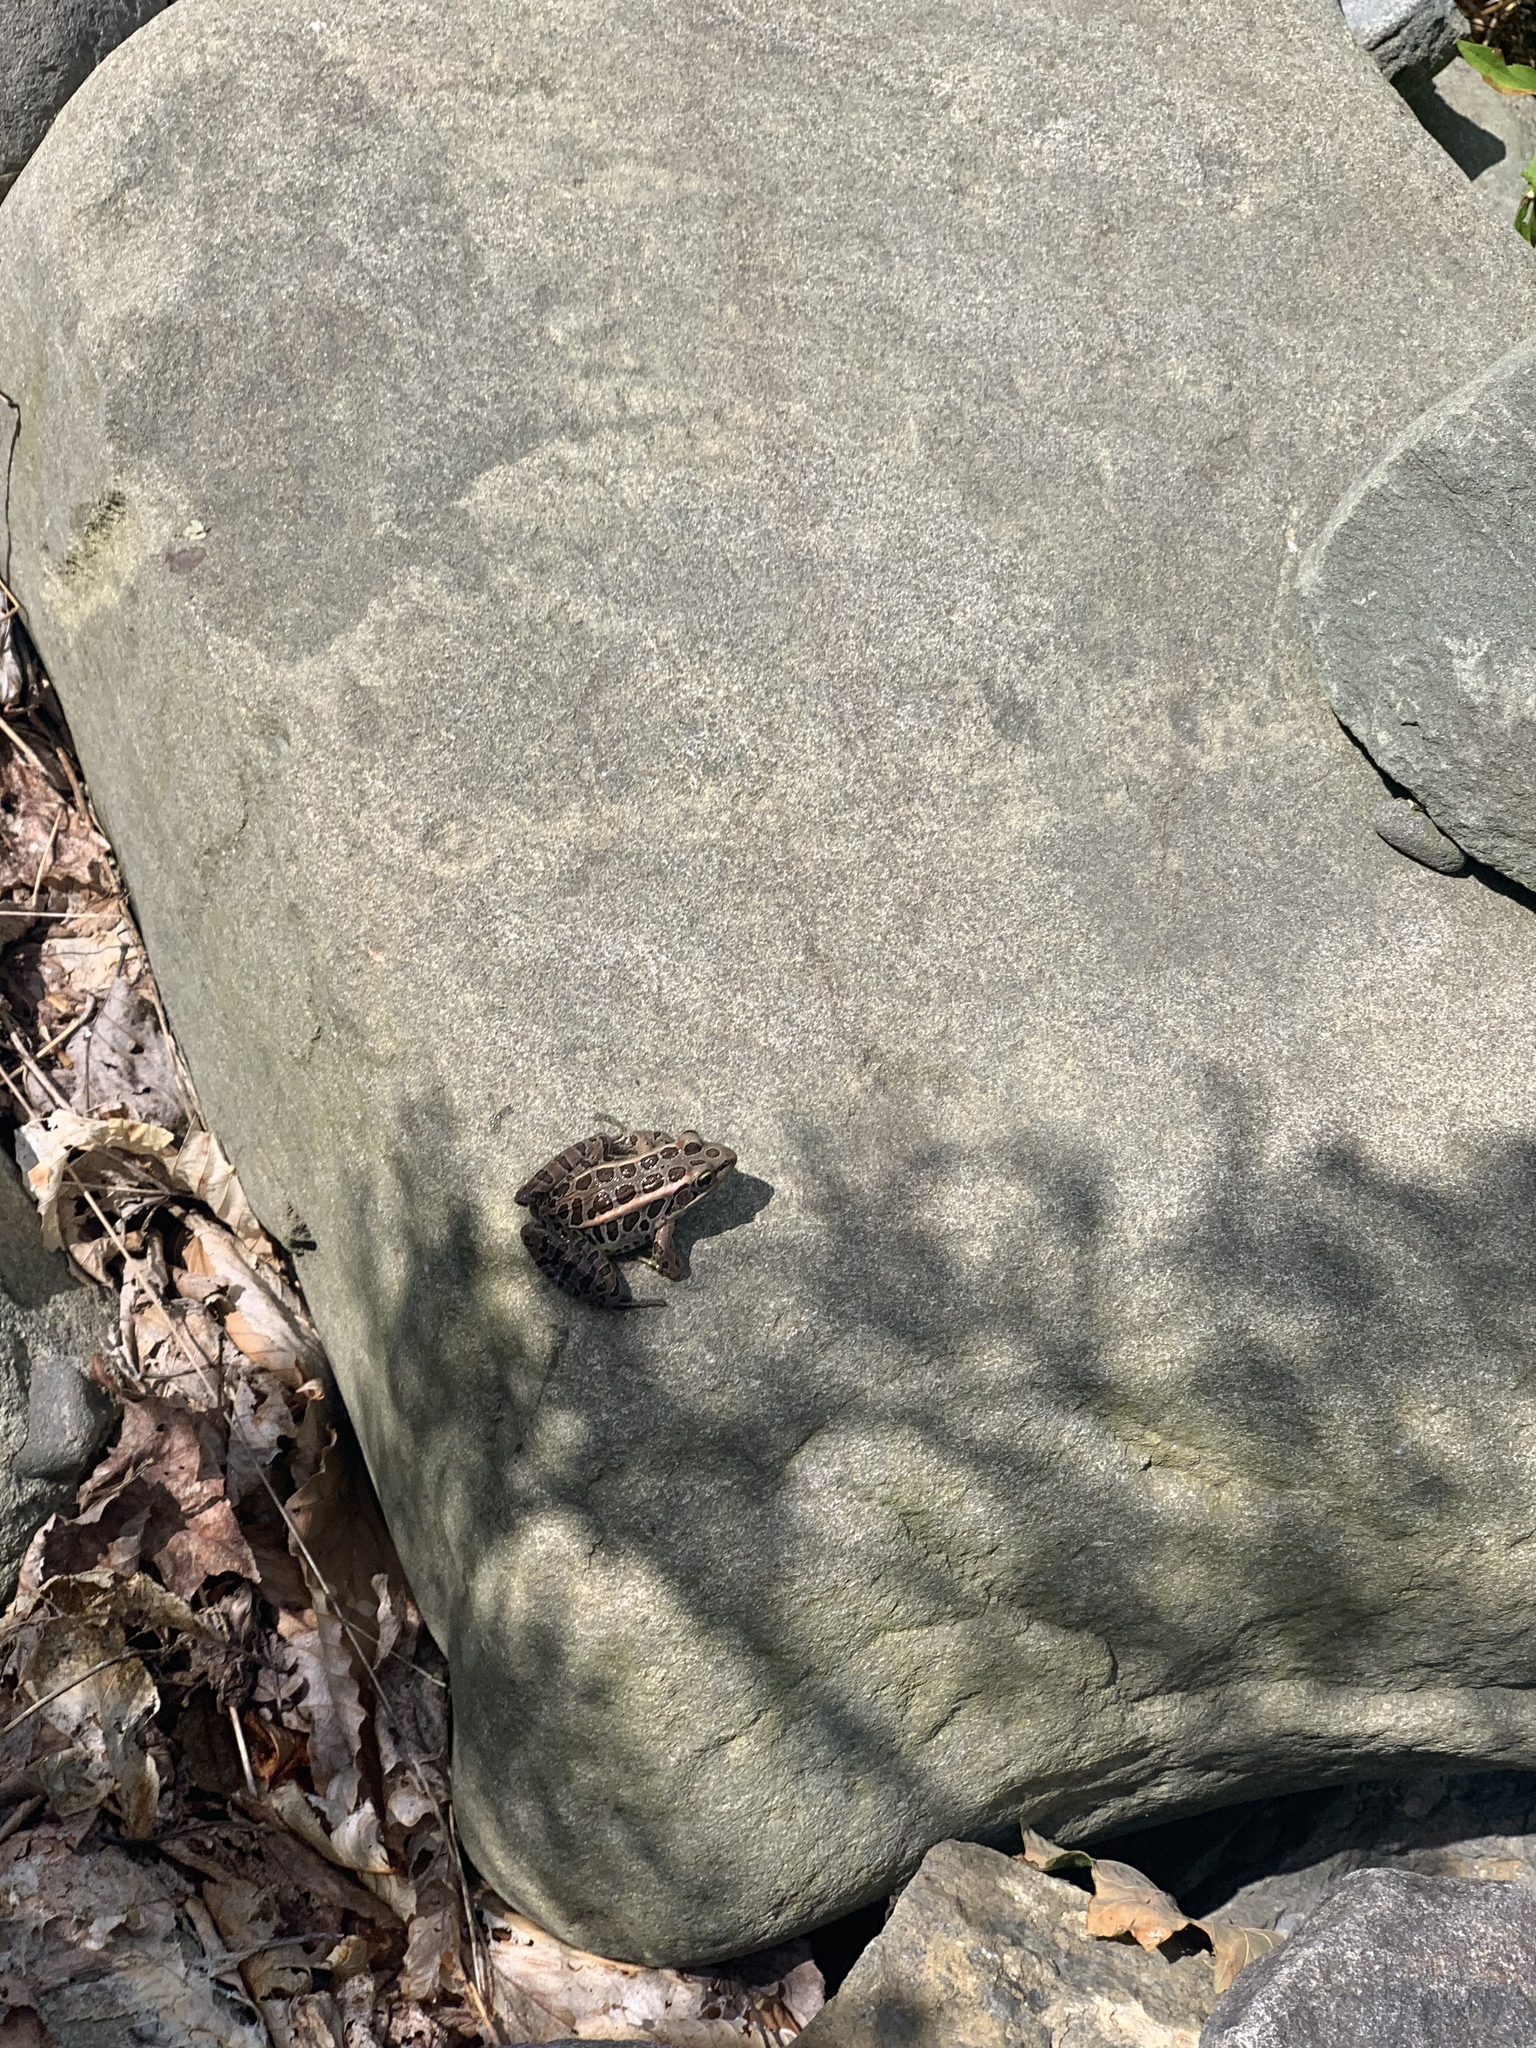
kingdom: Animalia
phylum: Chordata
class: Amphibia
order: Anura
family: Ranidae
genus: Lithobates
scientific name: Lithobates palustris
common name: Pickerel frog
